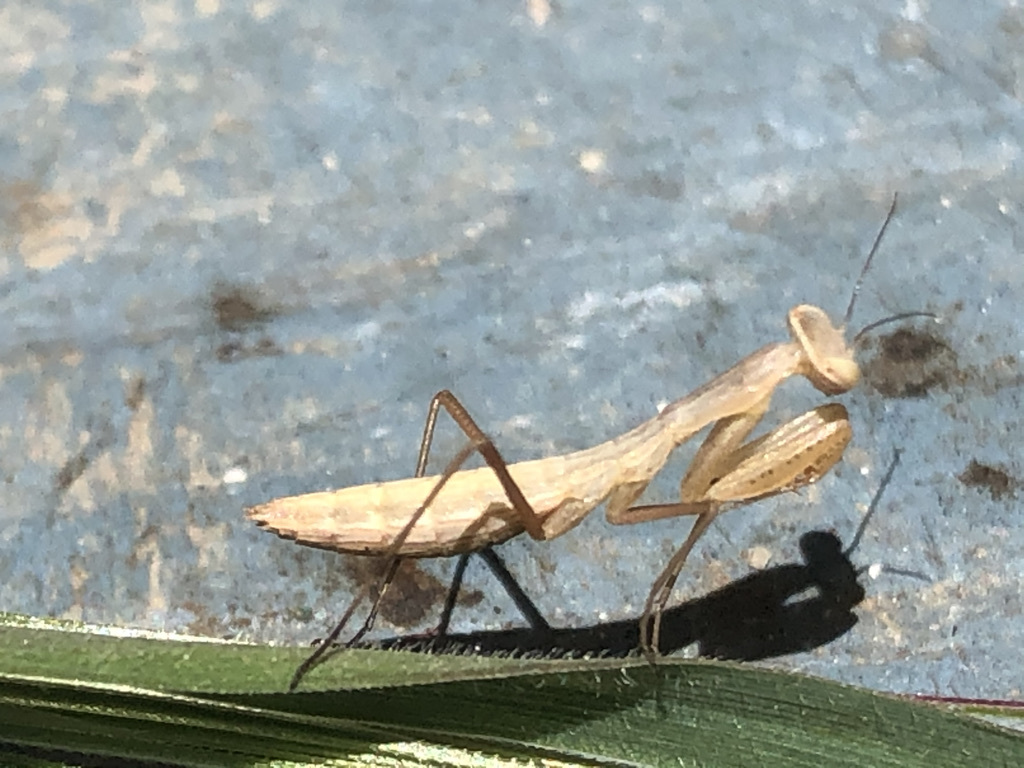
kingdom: Animalia
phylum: Arthropoda
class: Insecta
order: Mantodea
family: Mantidae
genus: Mantis
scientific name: Mantis religiosa
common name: Praying mantis
